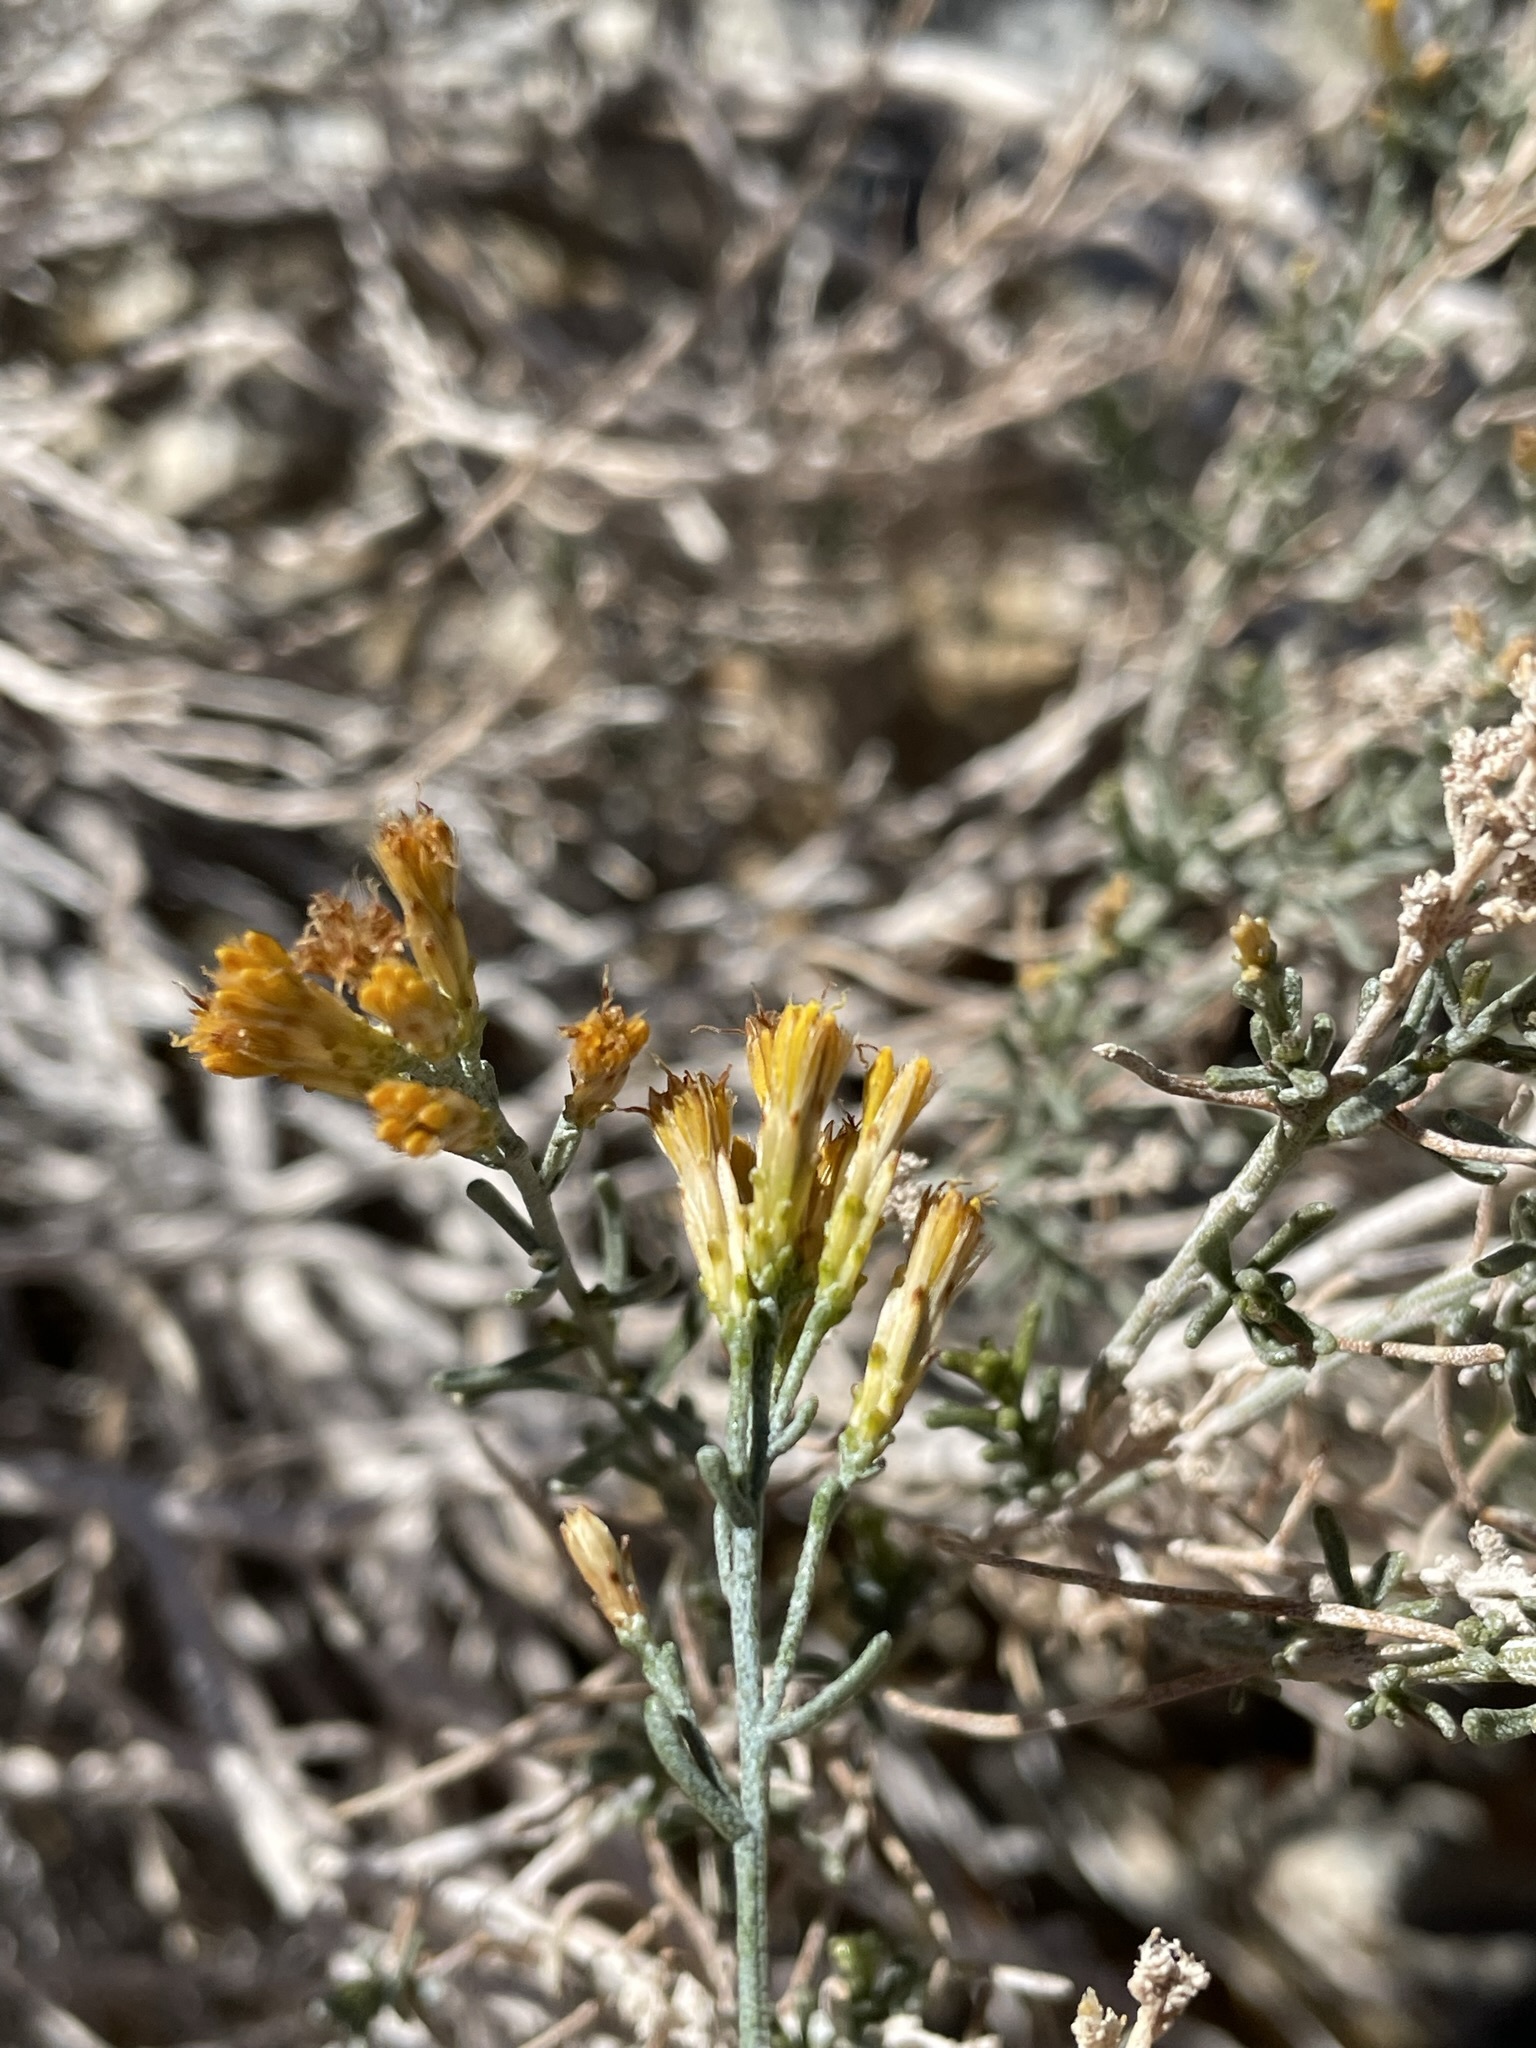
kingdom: Plantae
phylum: Tracheophyta
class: Magnoliopsida
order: Asterales
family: Asteraceae
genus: Ericameria
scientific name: Ericameria teretifolia
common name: Round-leaf rabbitbrush
